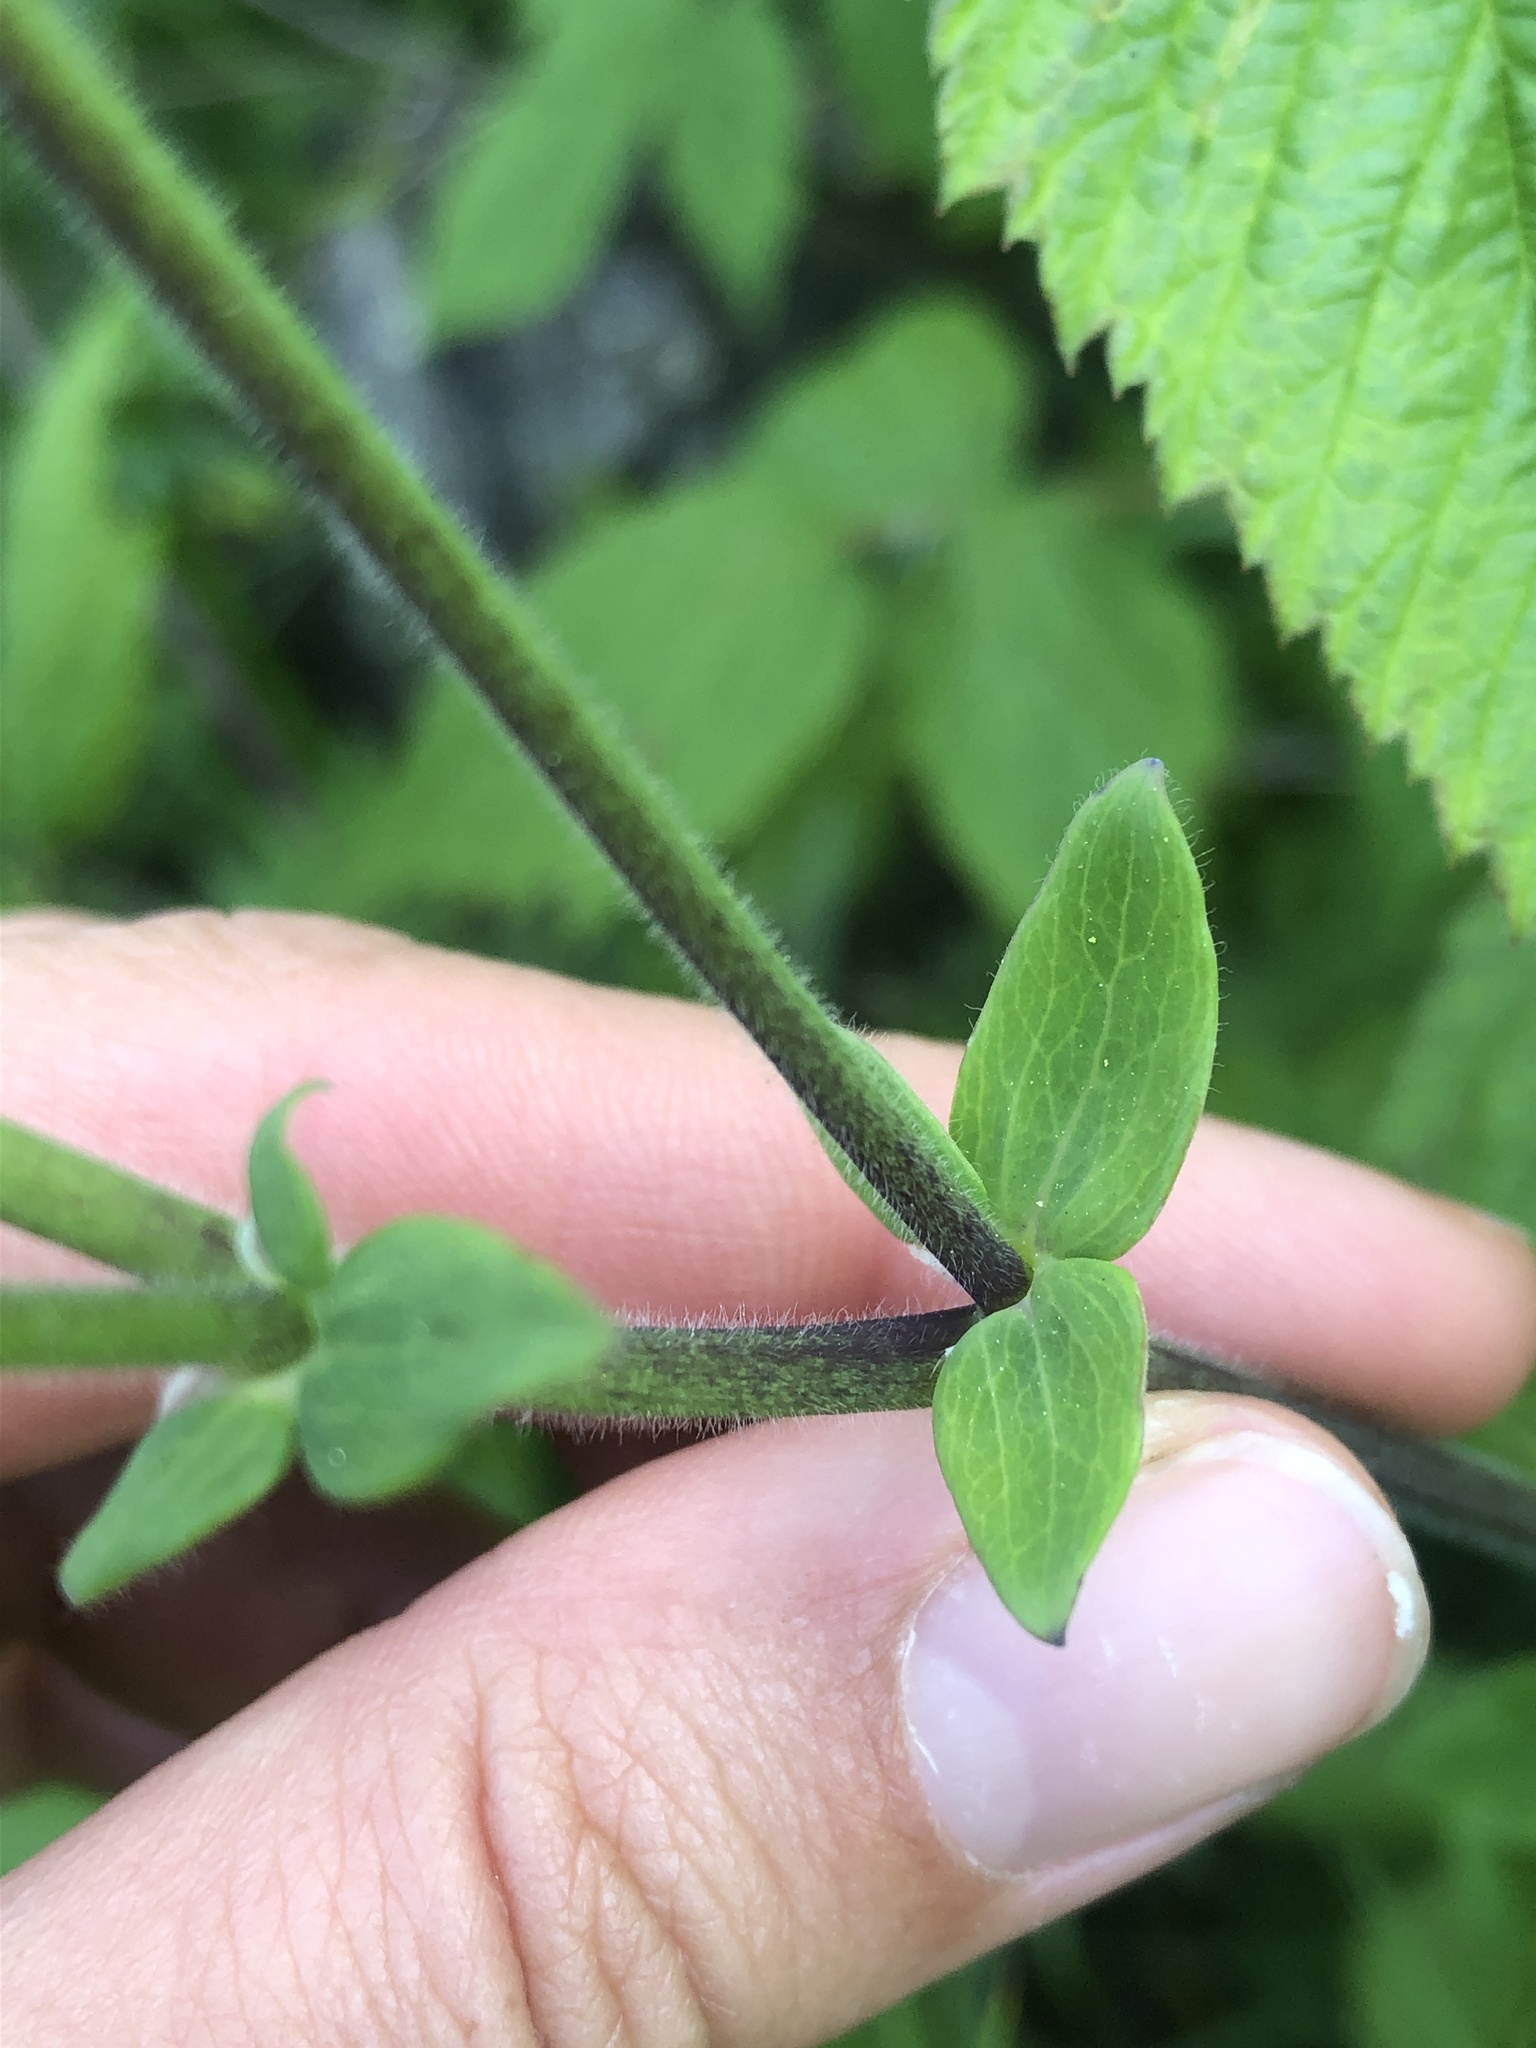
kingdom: Plantae
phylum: Tracheophyta
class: Magnoliopsida
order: Ranunculales
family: Ranunculaceae
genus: Aquilegia
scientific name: Aquilegia vulgaris
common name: Columbine
